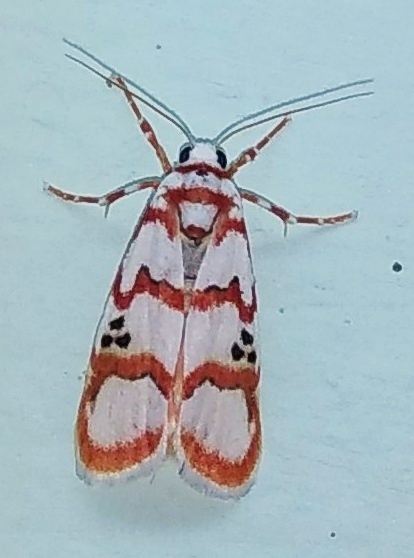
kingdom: Animalia
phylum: Arthropoda
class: Insecta
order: Lepidoptera
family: Erebidae
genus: Cyana
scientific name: Cyana puella
